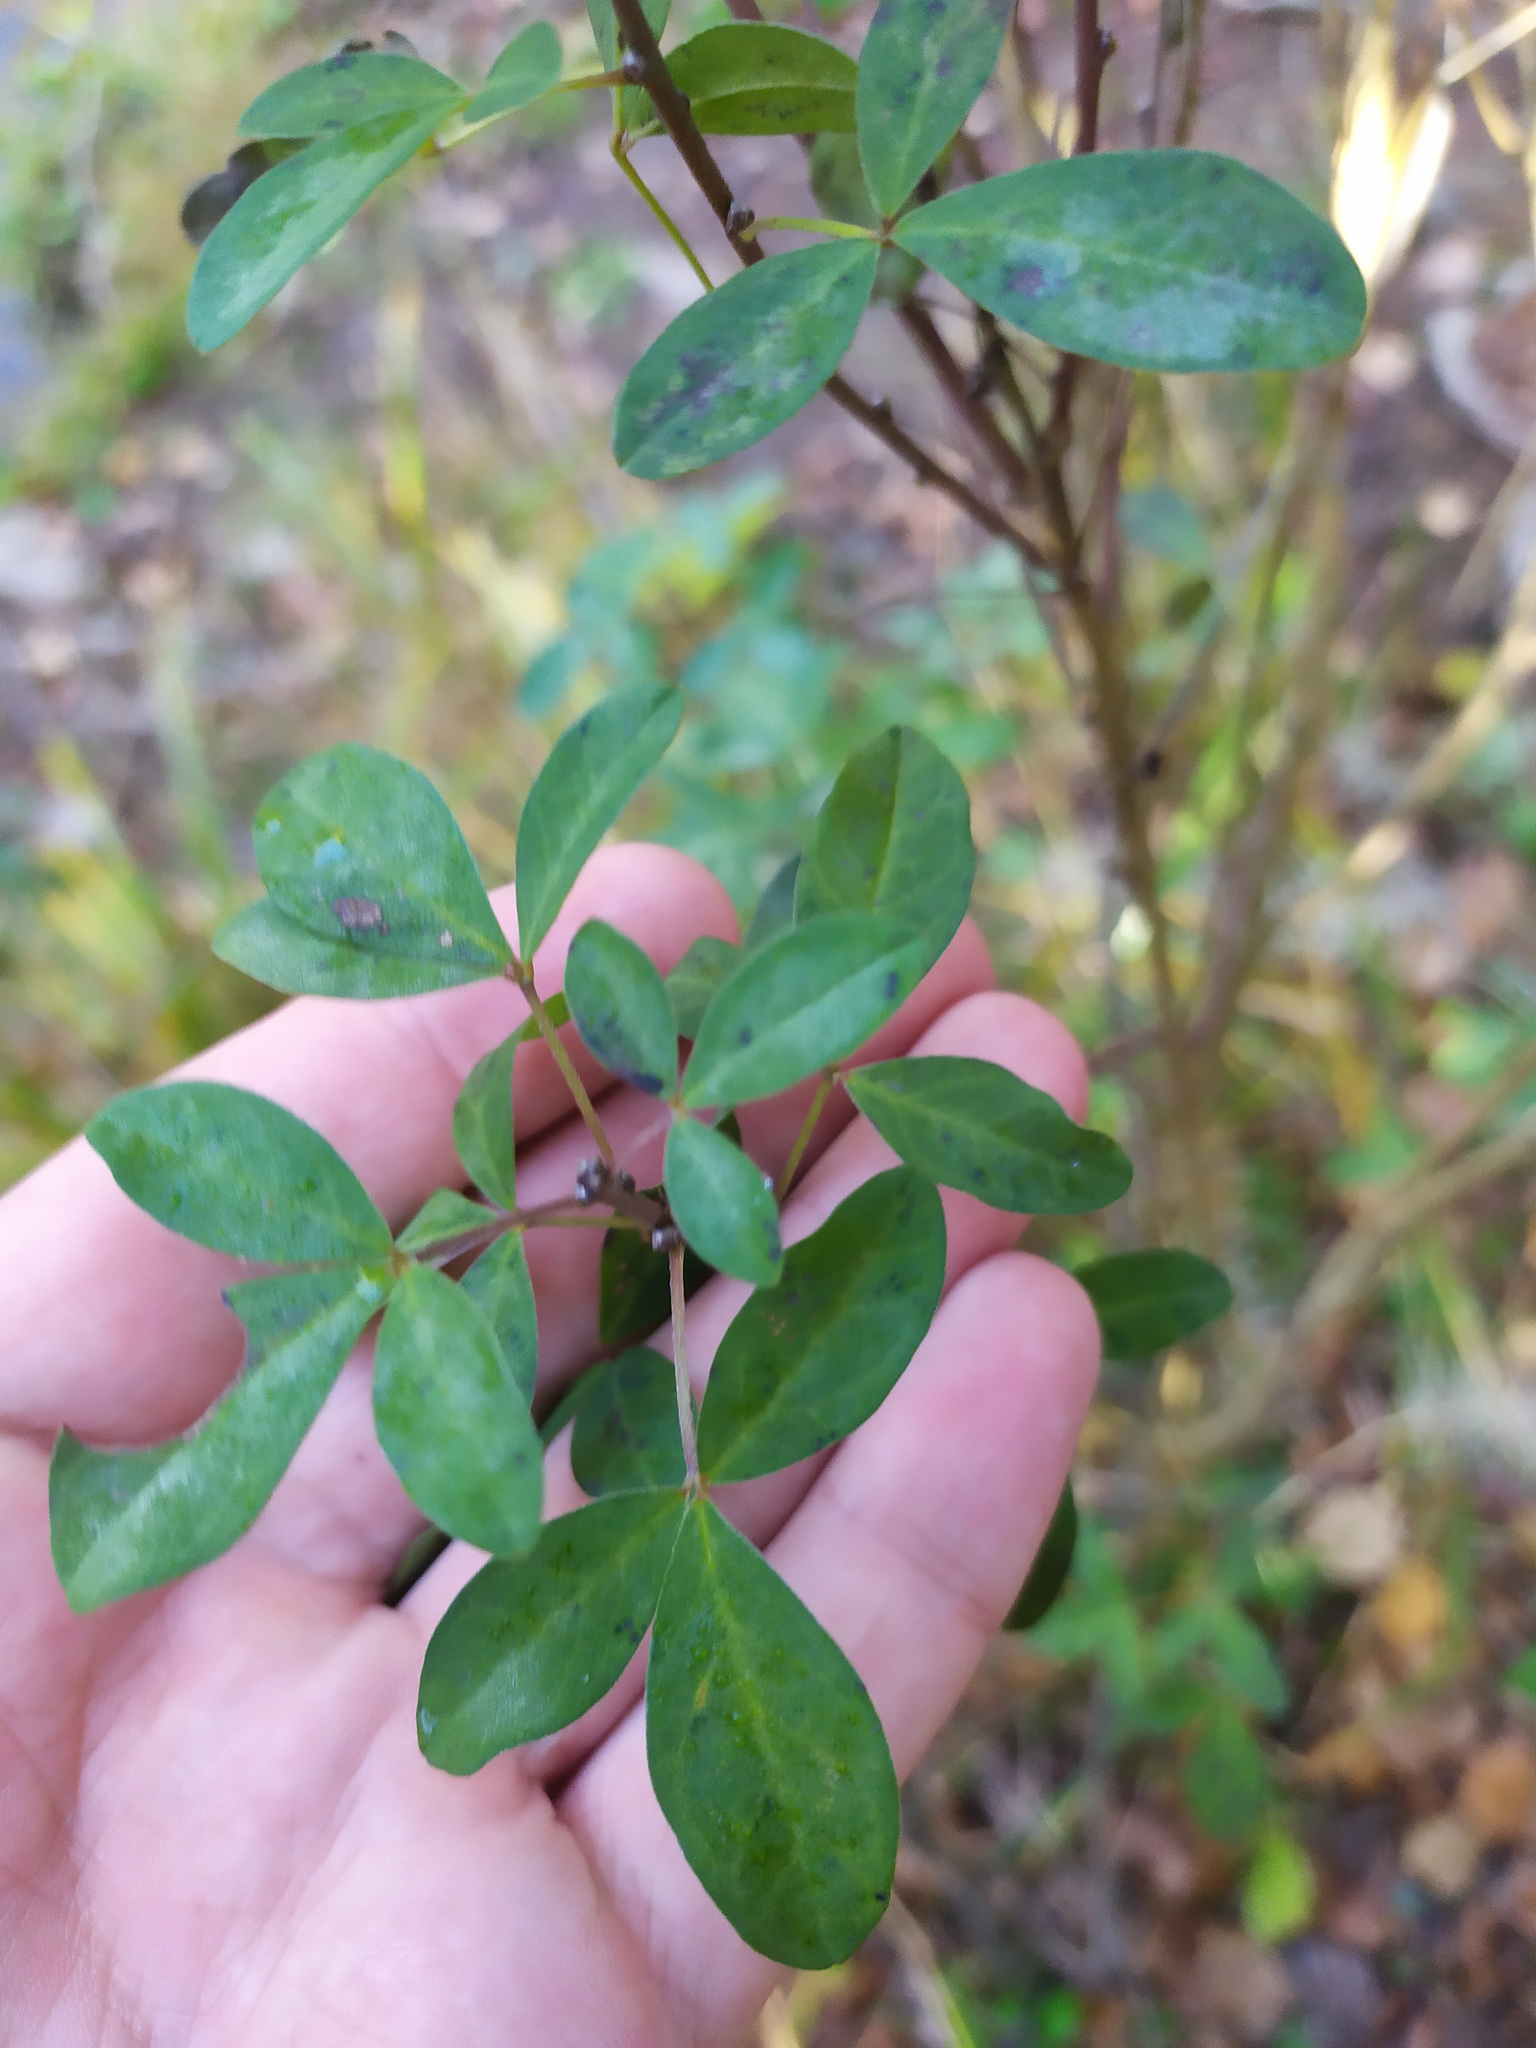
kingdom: Plantae
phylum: Tracheophyta
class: Magnoliopsida
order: Fabales
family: Fabaceae
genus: Chamaecytisus
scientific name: Chamaecytisus ruthenicus
